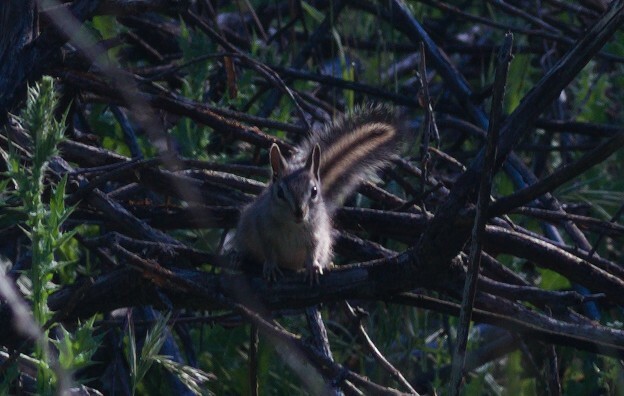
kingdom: Animalia
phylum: Chordata
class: Mammalia
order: Rodentia
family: Sciuridae
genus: Tamias
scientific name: Tamias merriami
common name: Merriam's chipmunk
